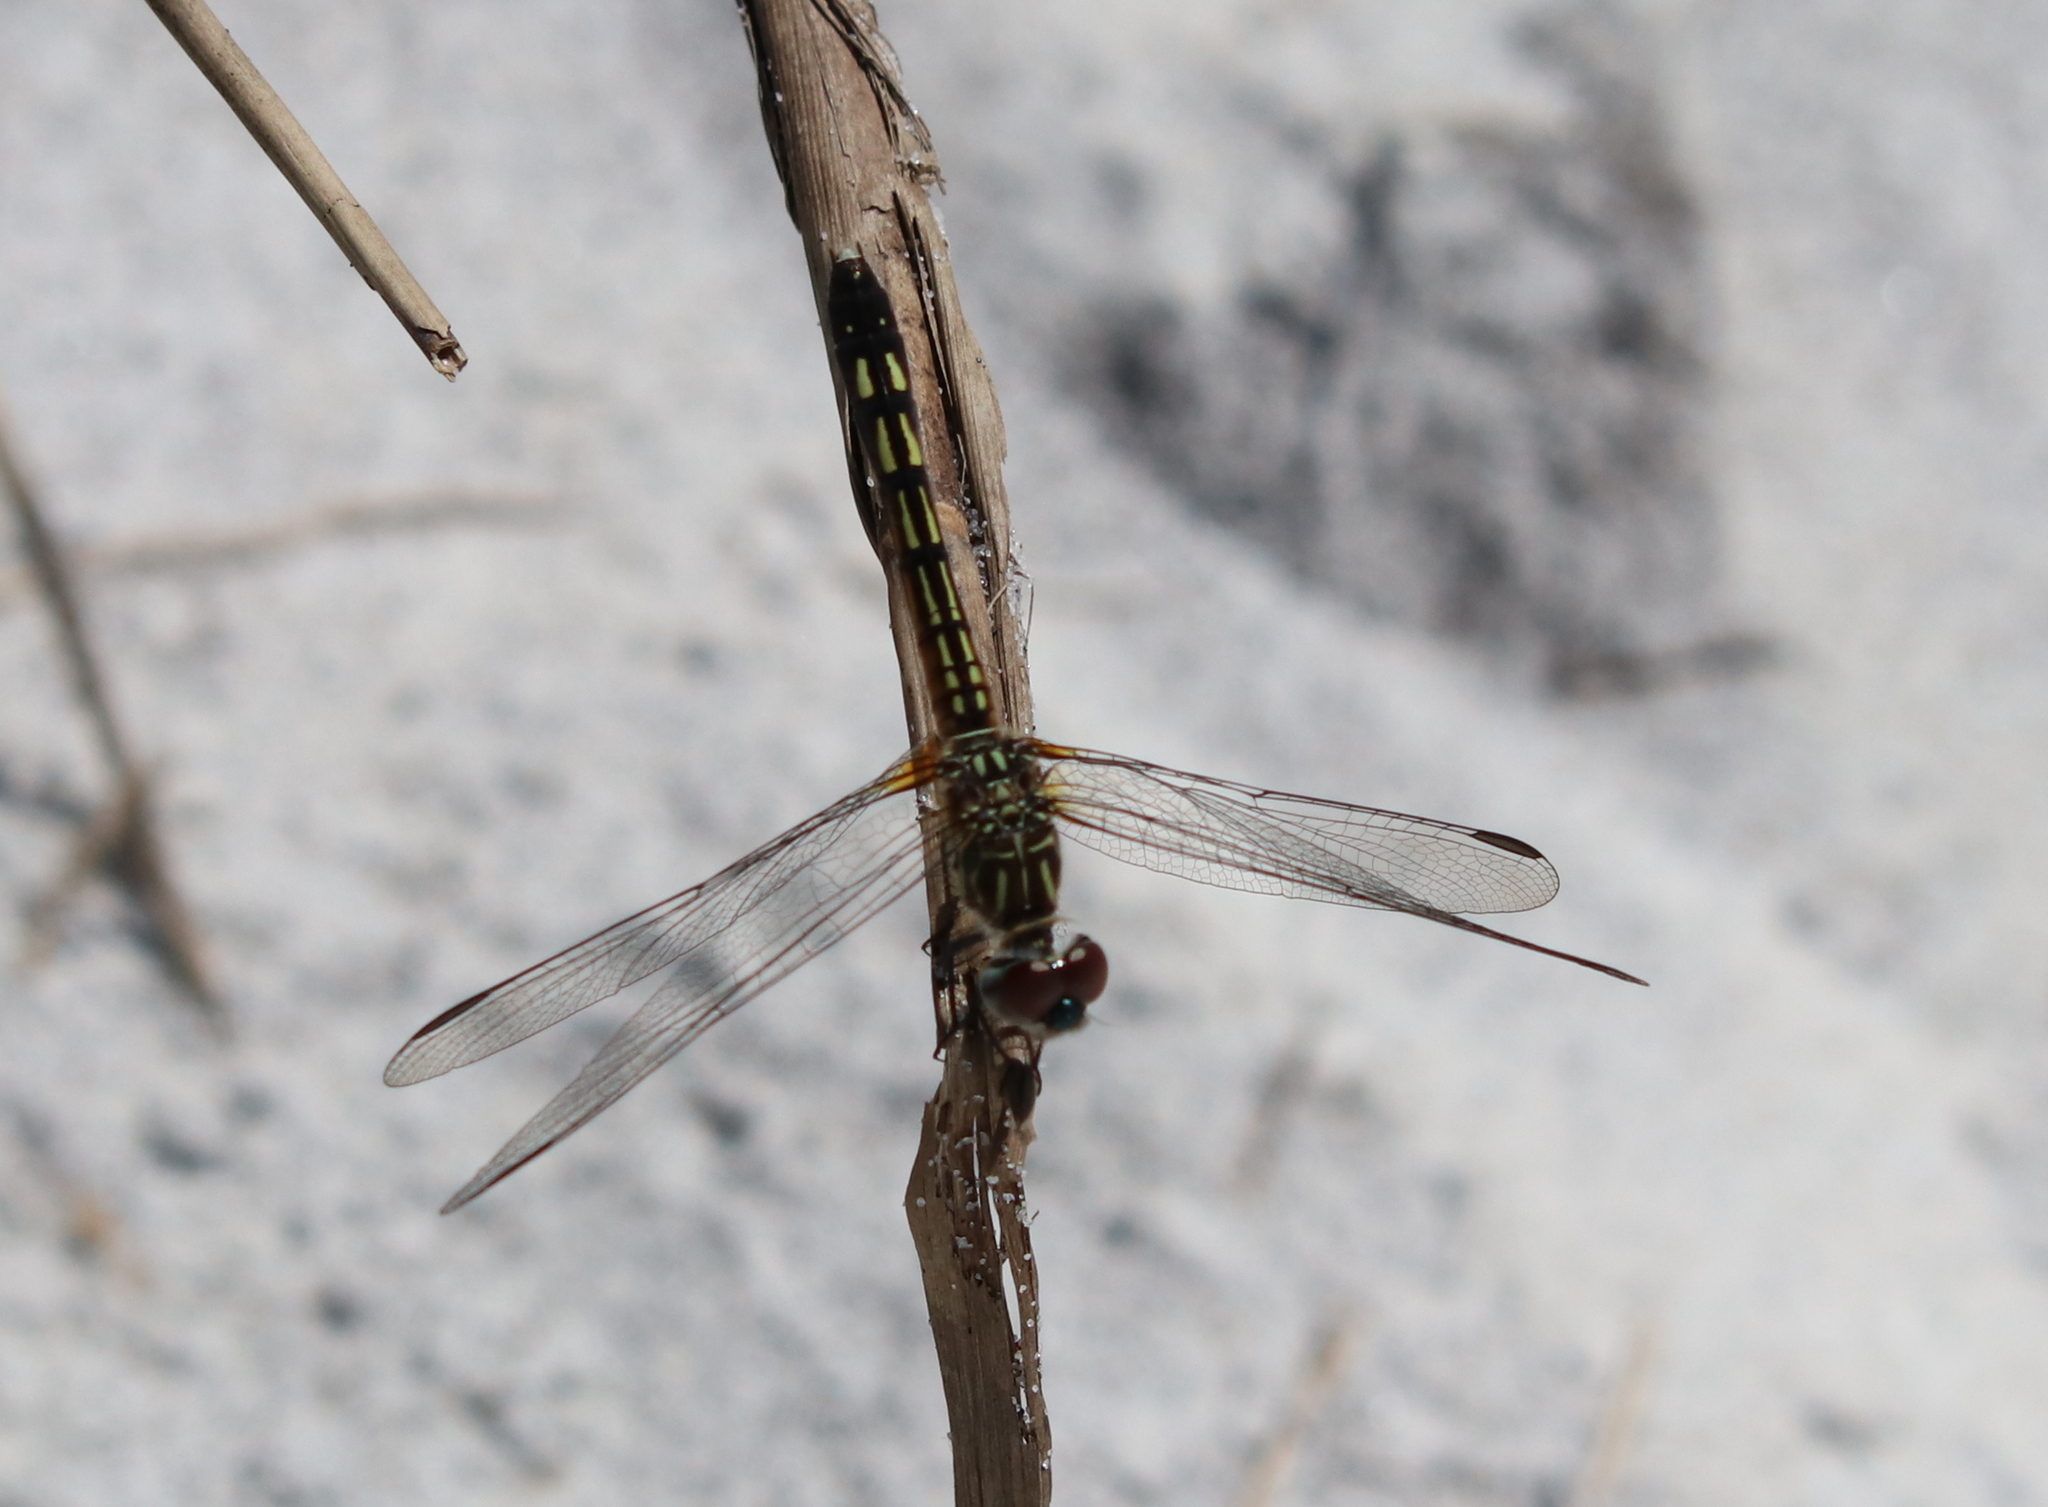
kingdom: Animalia
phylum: Arthropoda
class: Insecta
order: Odonata
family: Libellulidae
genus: Pachydiplax
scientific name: Pachydiplax longipennis
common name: Blue dasher
